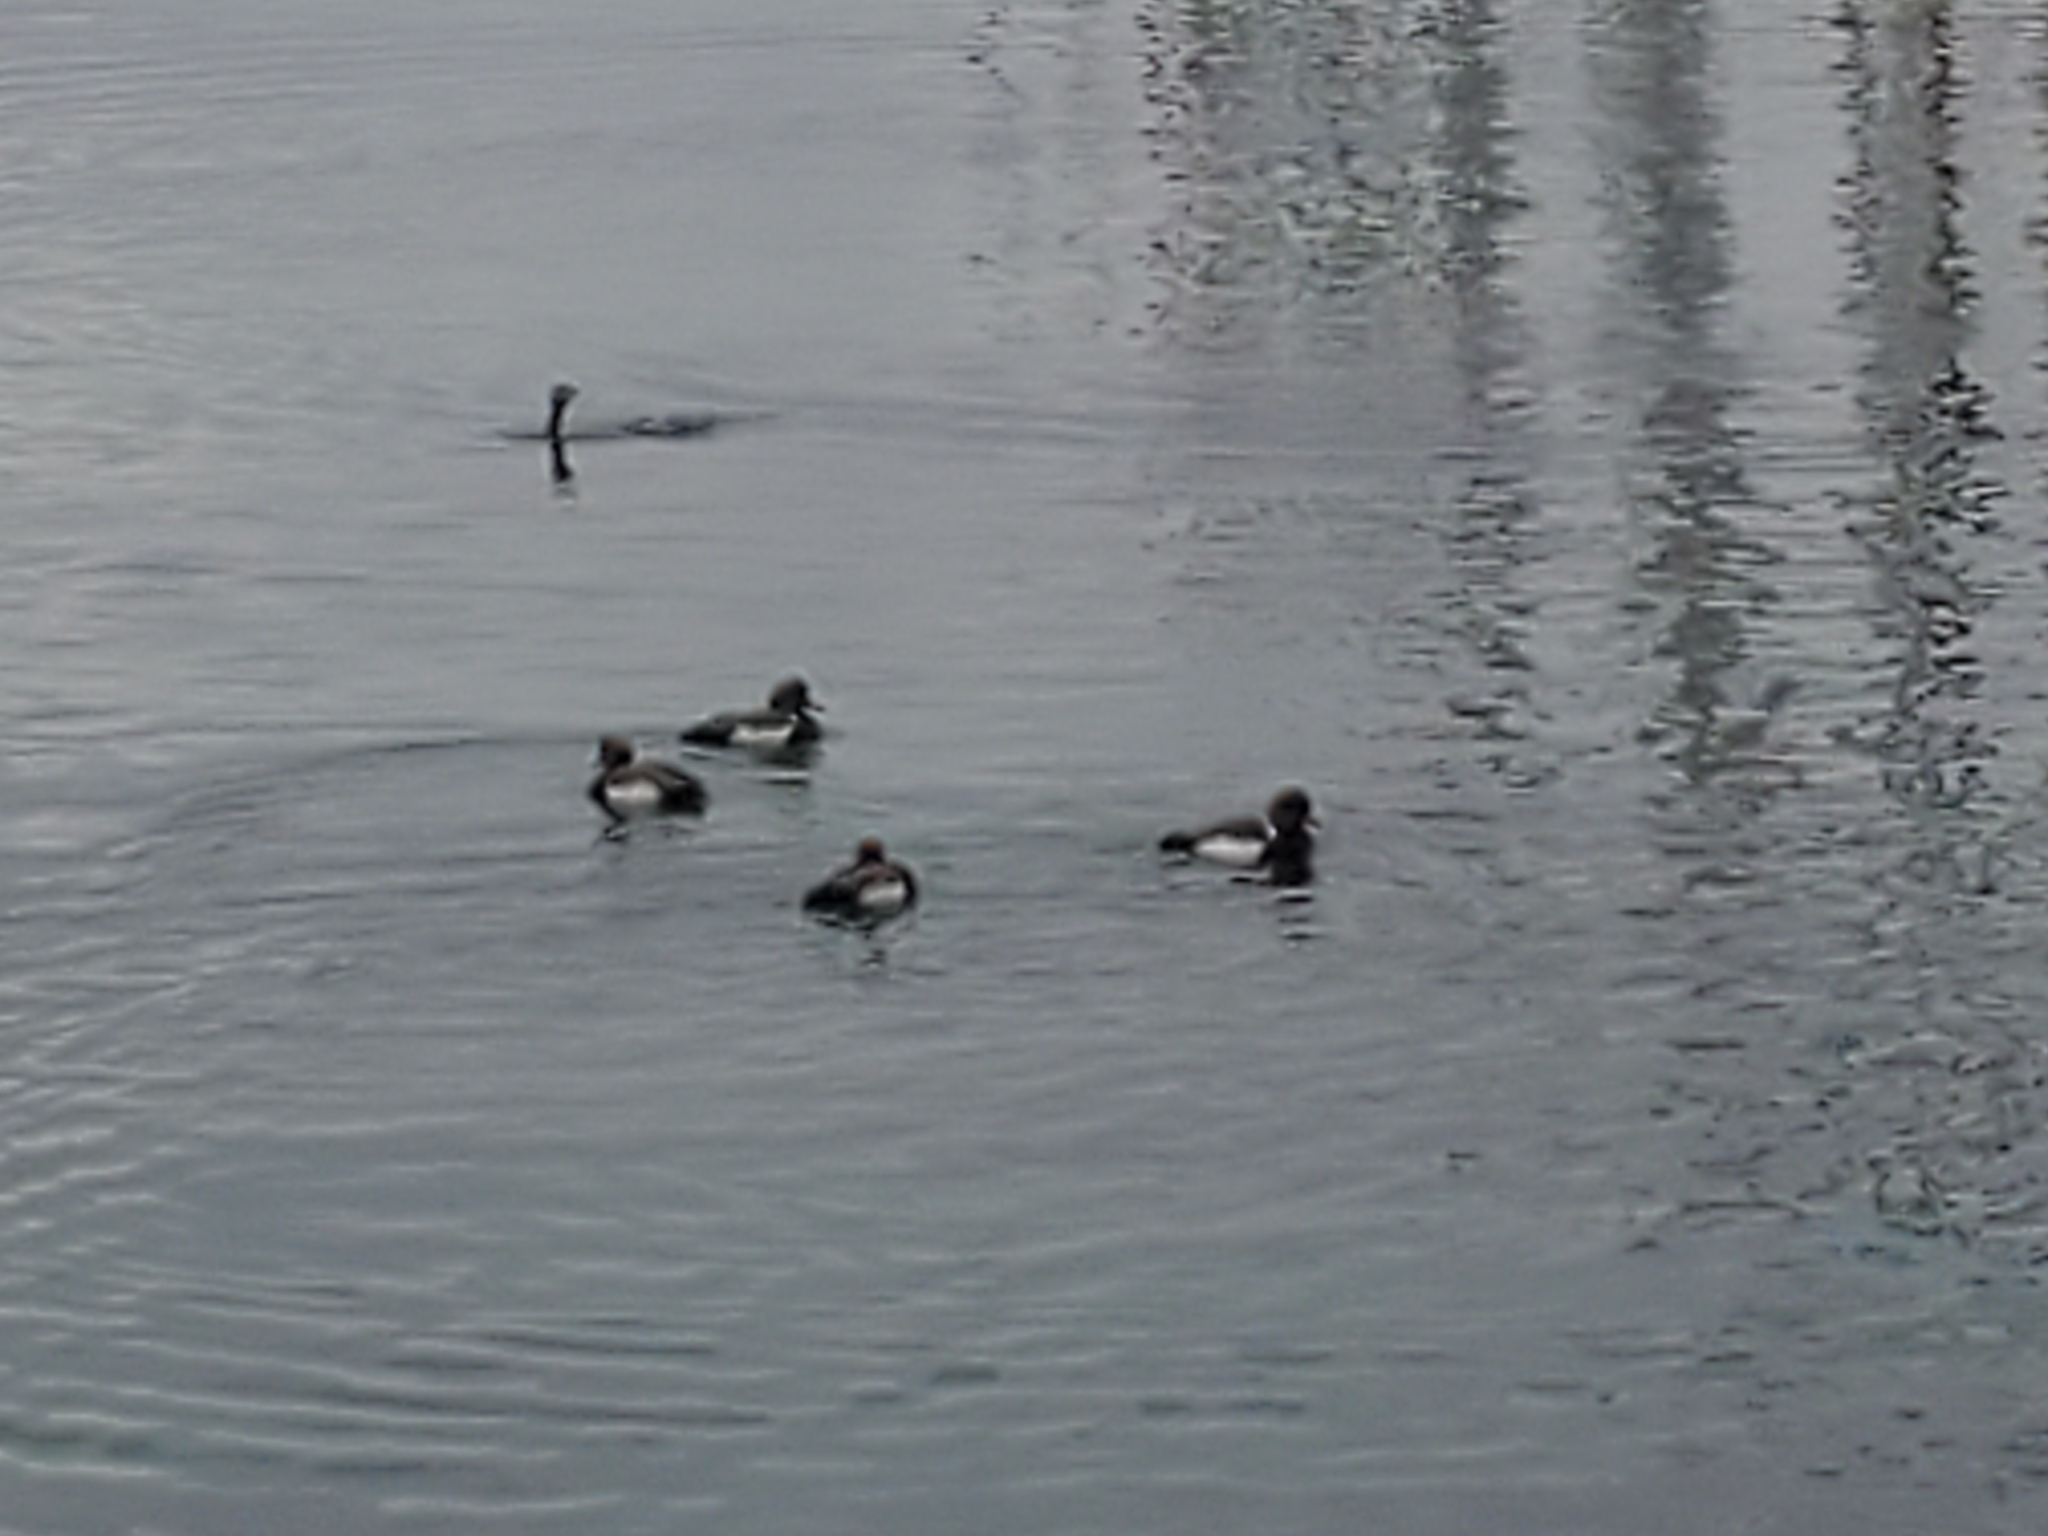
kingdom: Animalia
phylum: Chordata
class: Aves
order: Anseriformes
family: Anatidae
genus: Netta
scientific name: Netta rufina
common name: Red-crested pochard
